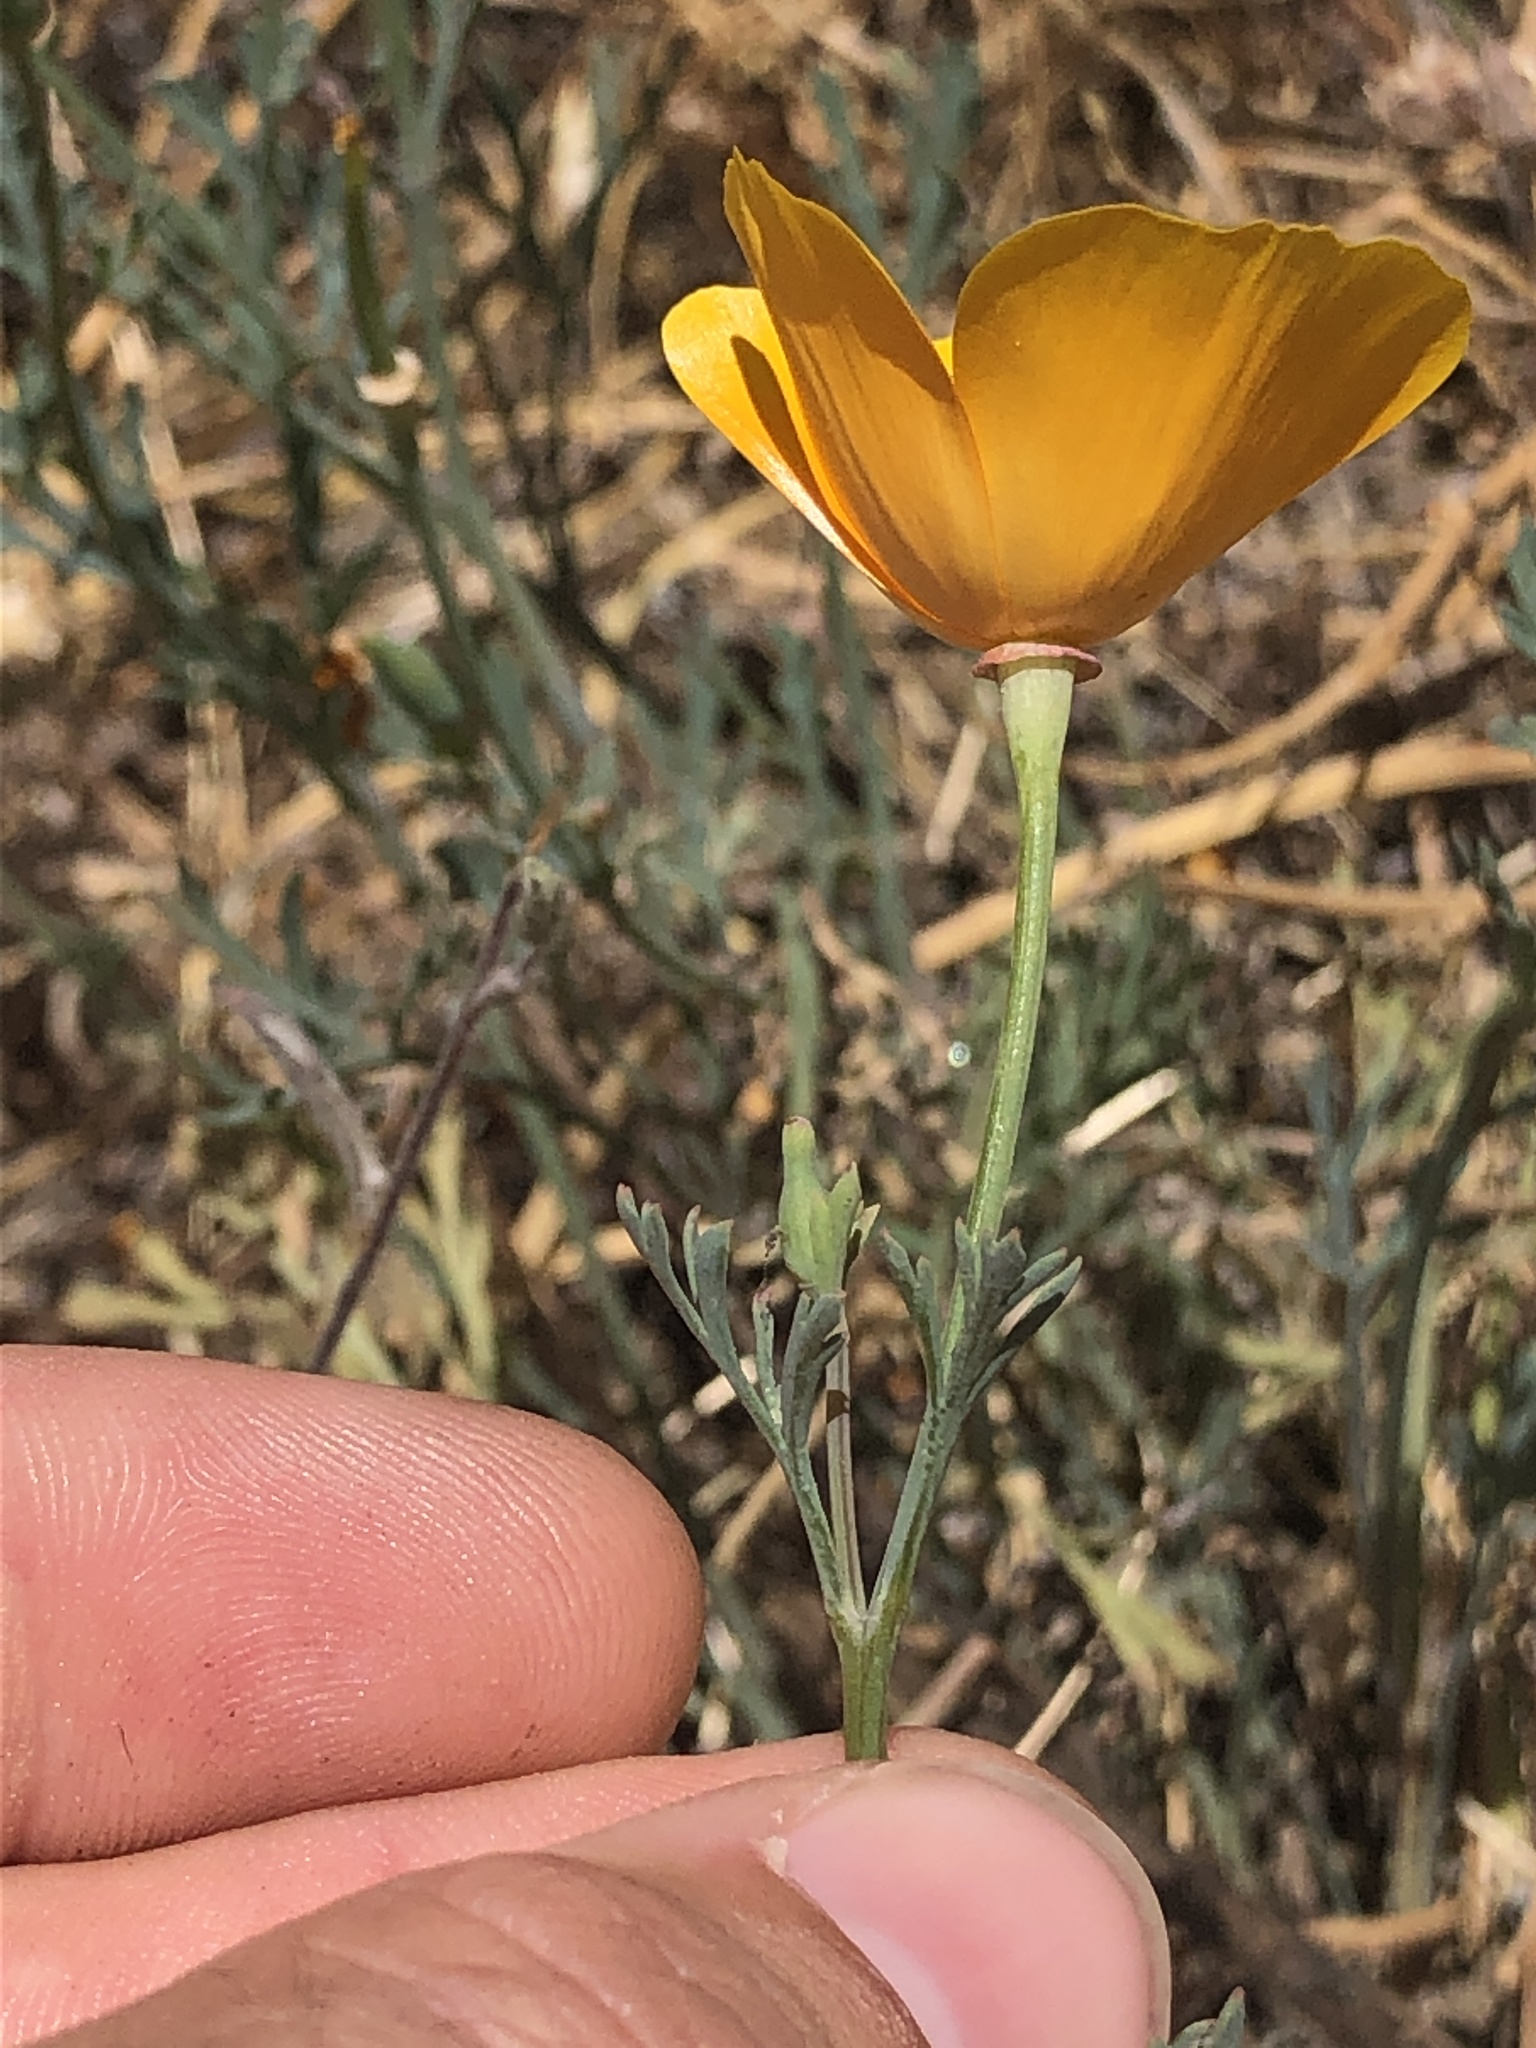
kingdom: Plantae
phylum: Tracheophyta
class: Magnoliopsida
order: Ranunculales
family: Papaveraceae
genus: Eschscholzia
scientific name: Eschscholzia californica
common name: California poppy
